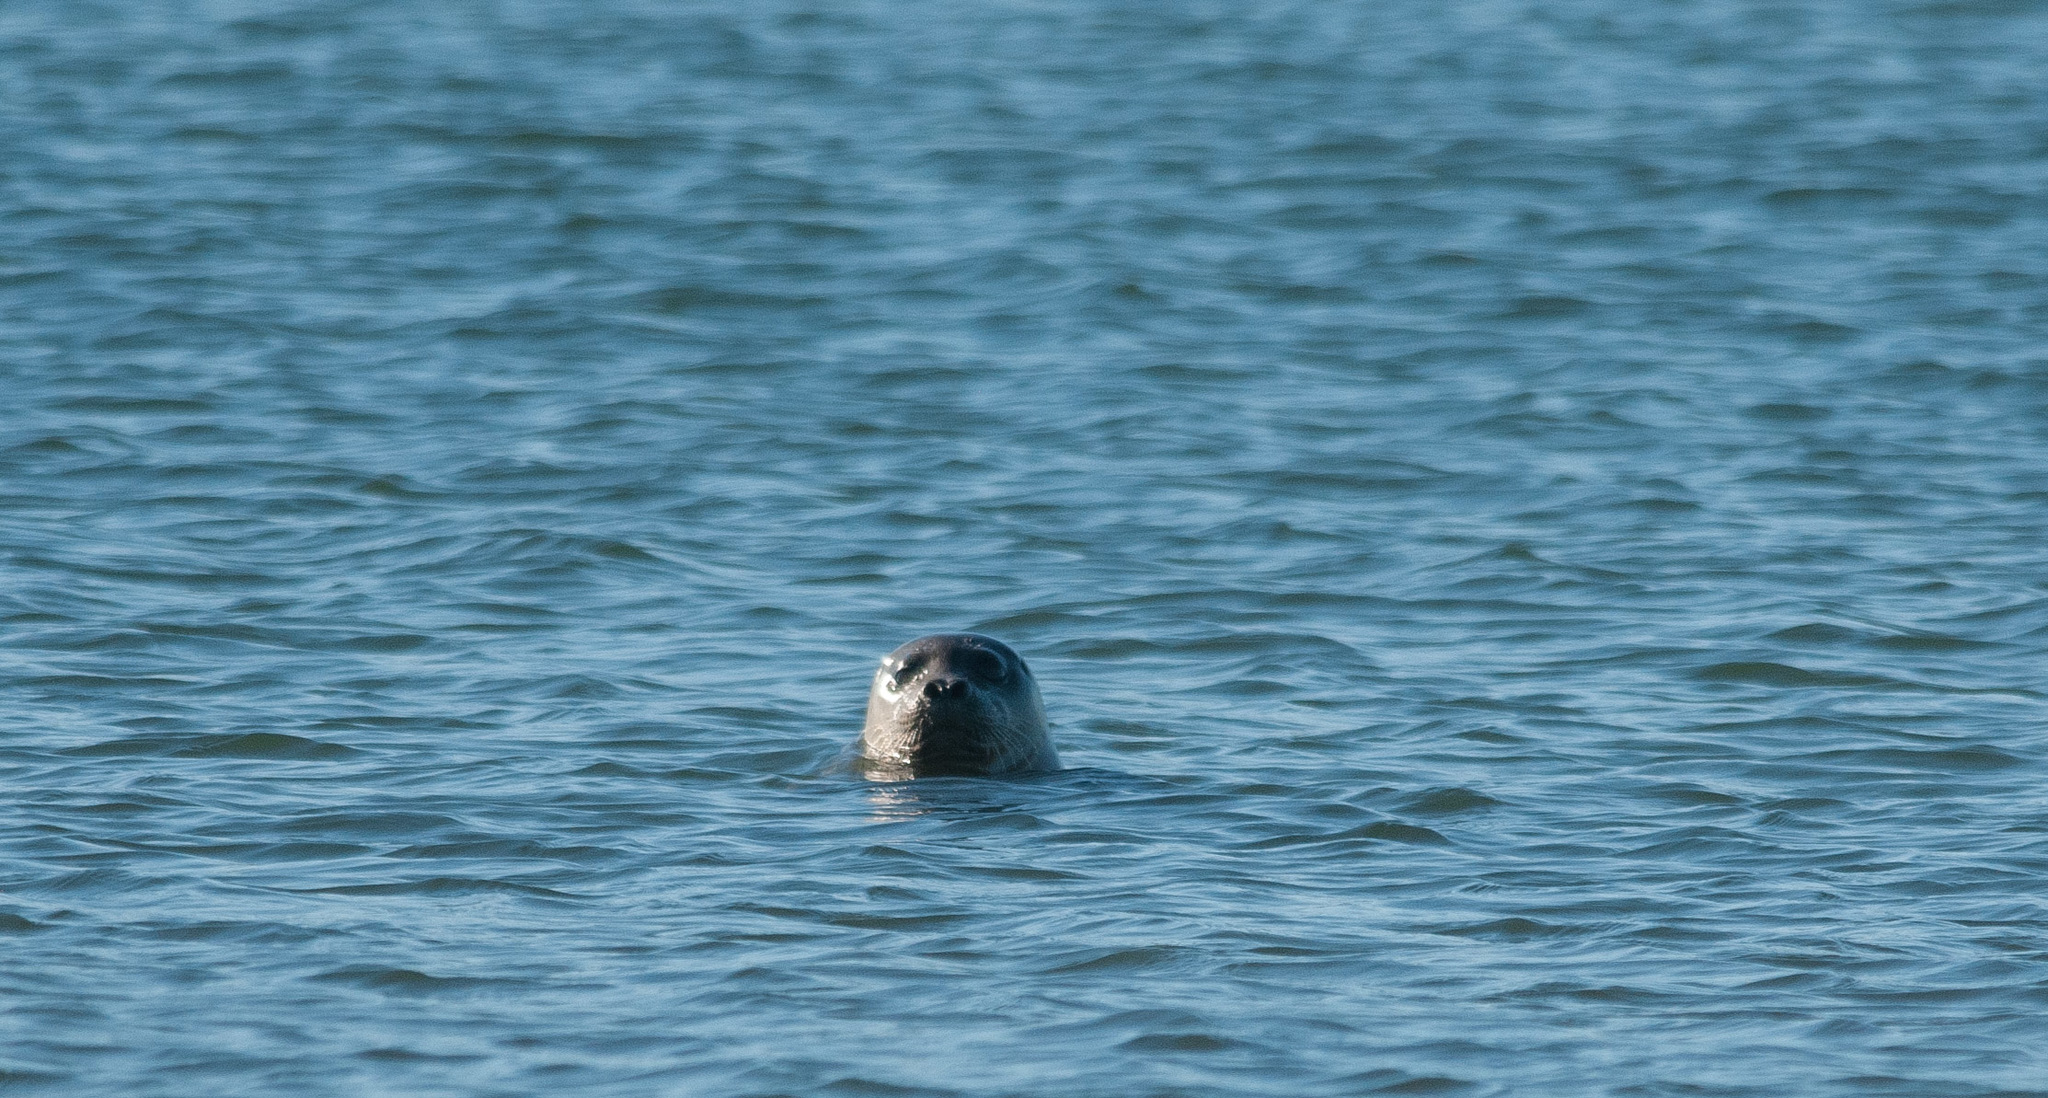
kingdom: Animalia
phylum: Chordata
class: Mammalia
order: Carnivora
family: Phocidae
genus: Phoca
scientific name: Phoca vitulina
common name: Harbor seal
